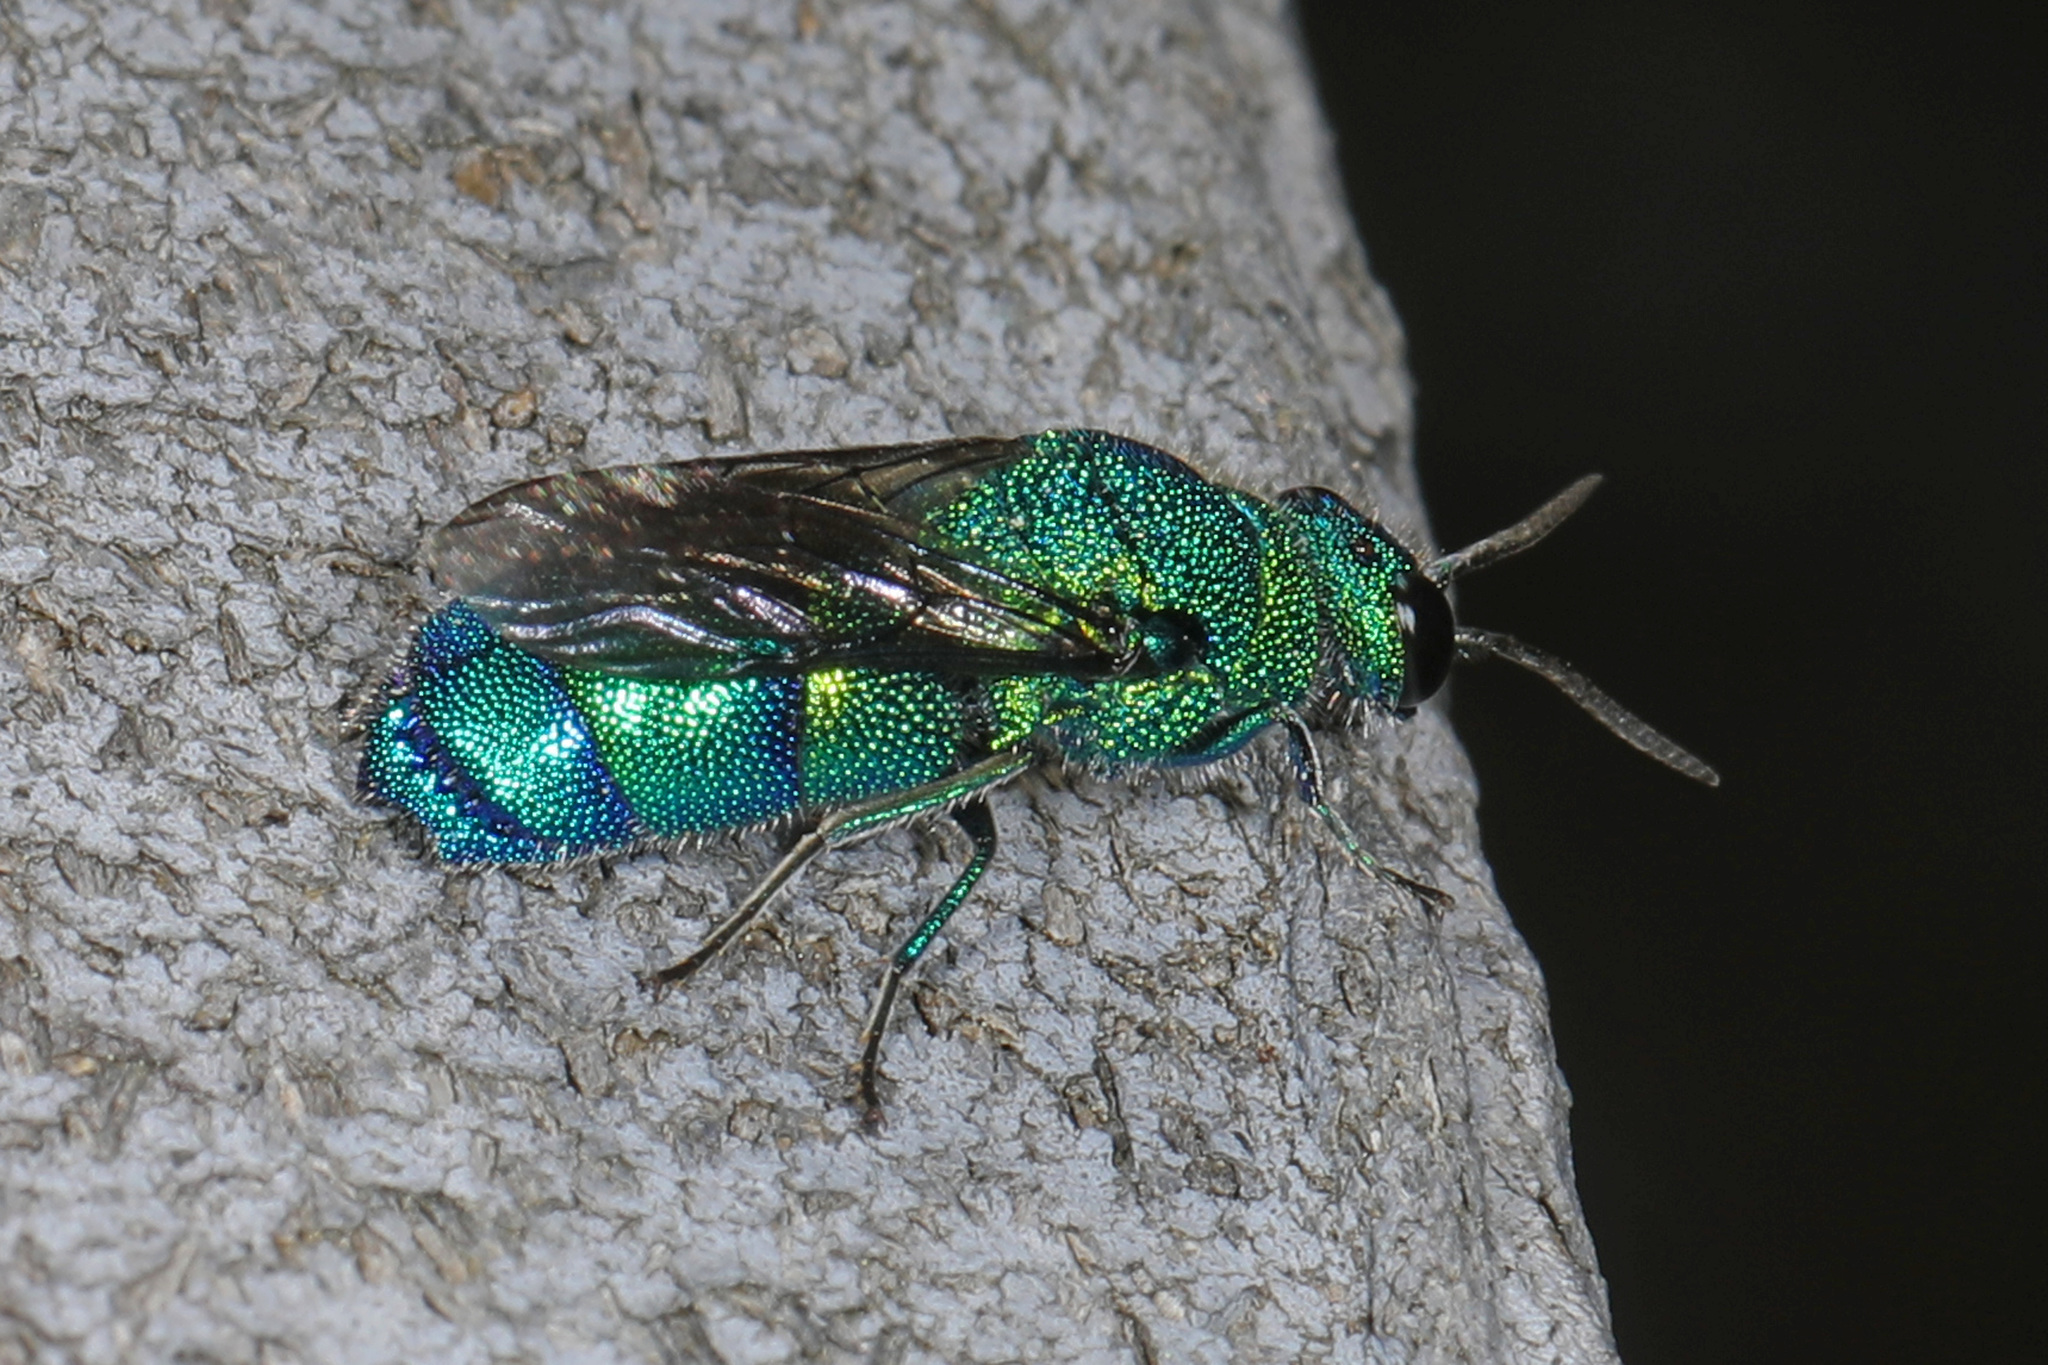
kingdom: Animalia
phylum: Arthropoda
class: Insecta
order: Hymenoptera
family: Chrysididae
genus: Chrysis
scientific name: Chrysis conica
